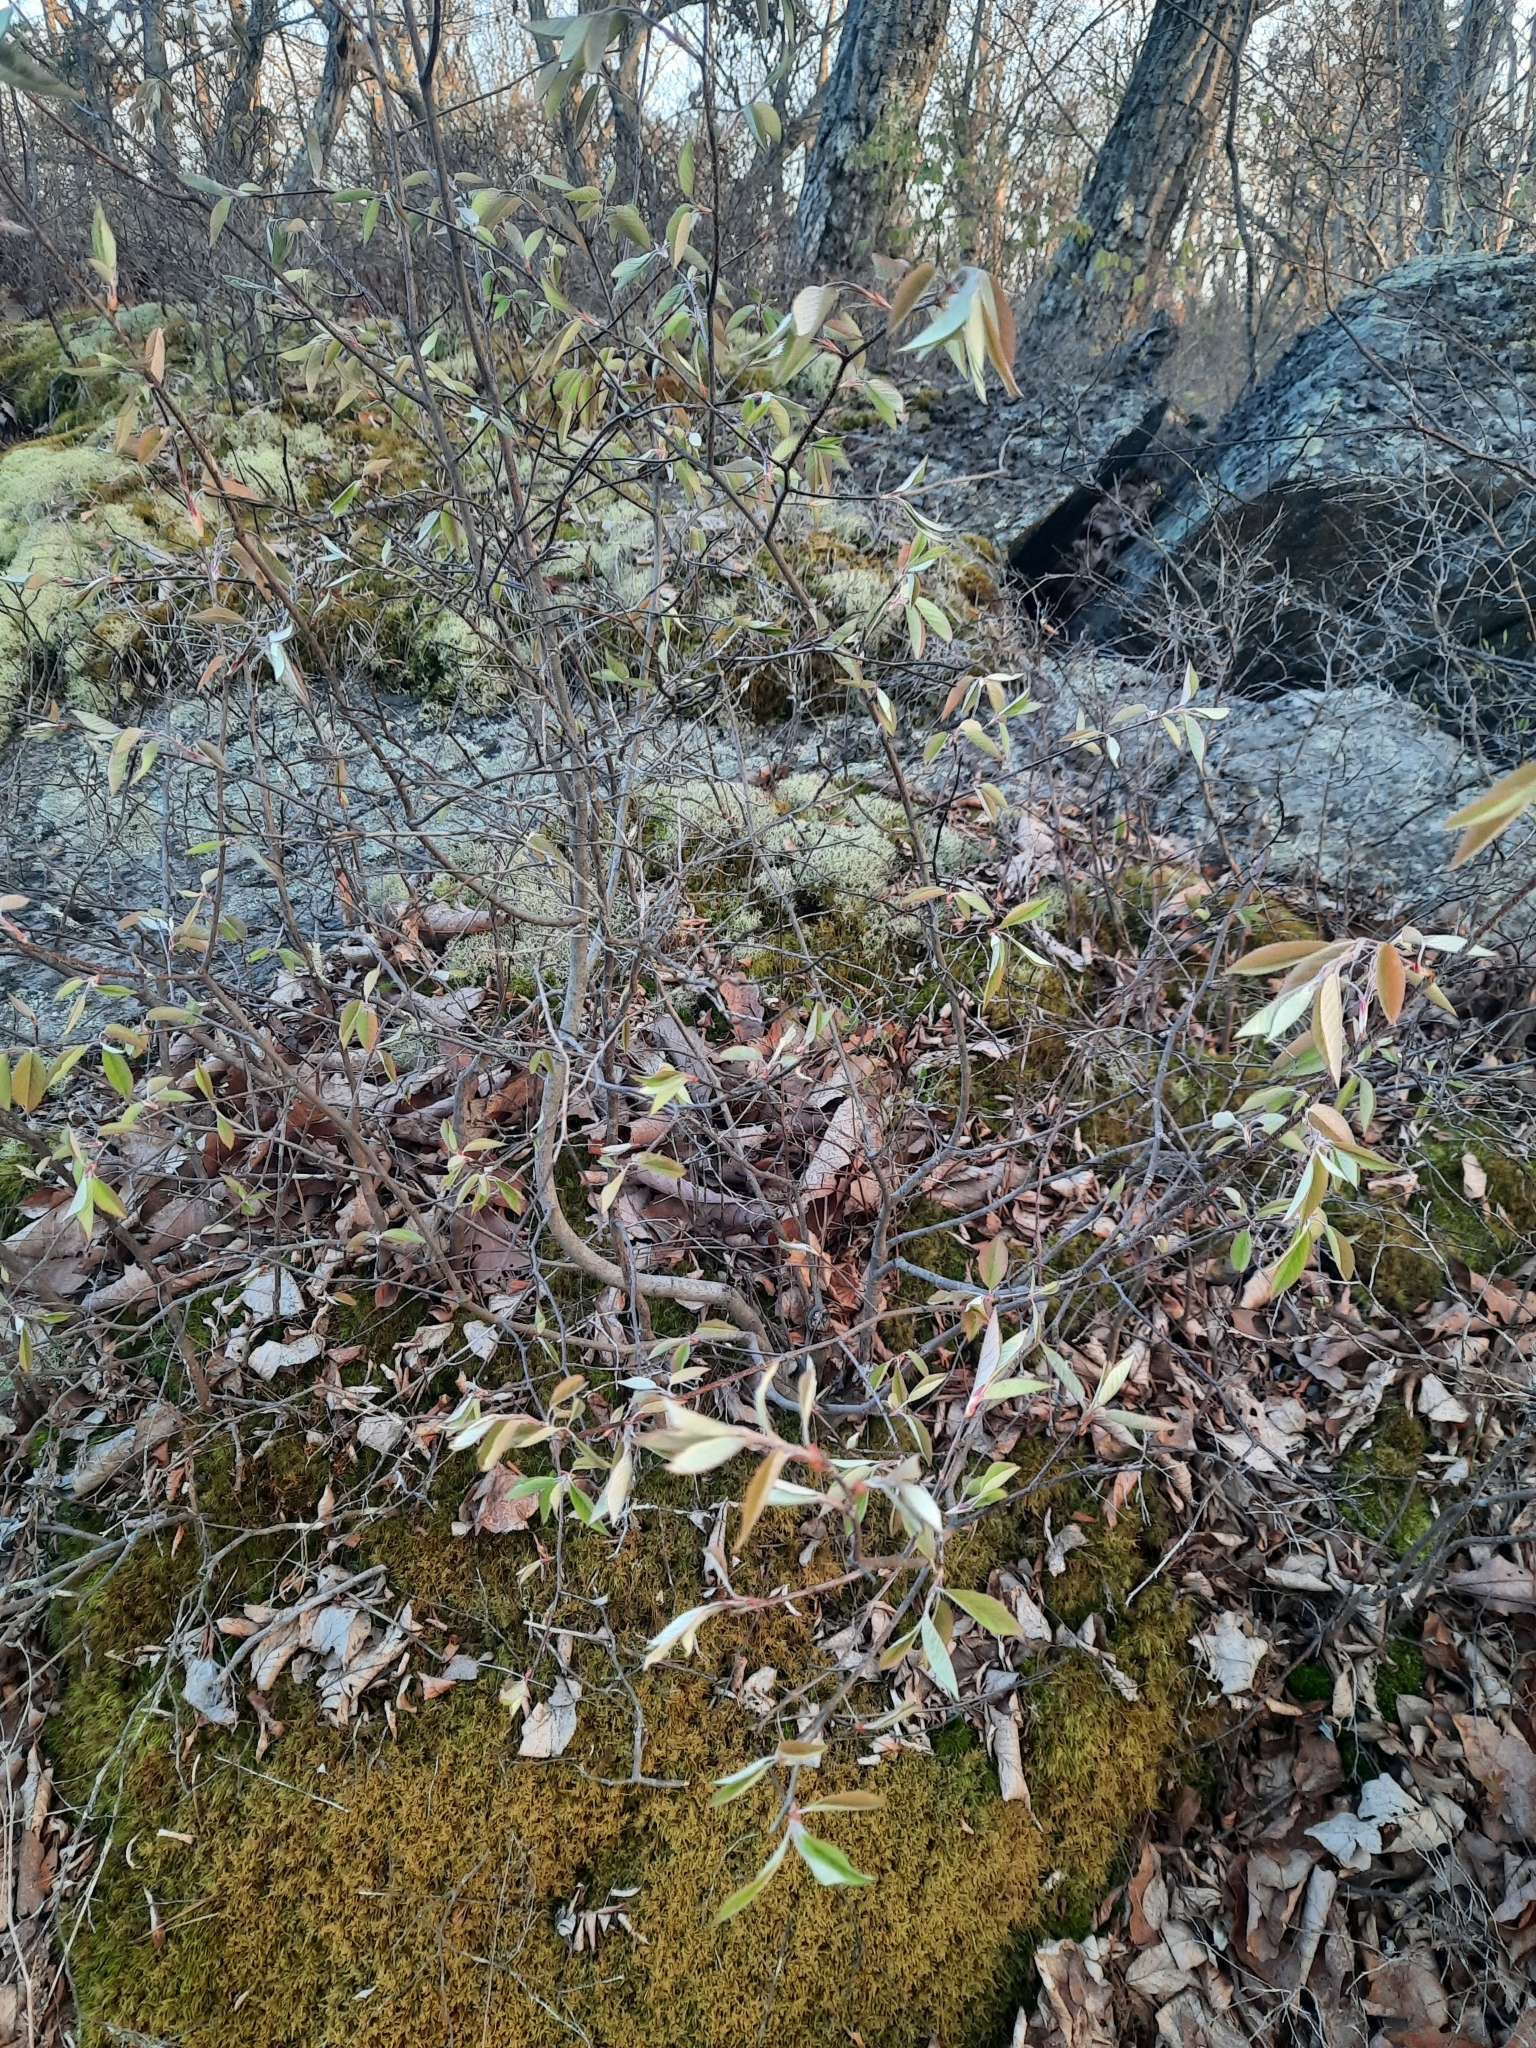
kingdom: Plantae
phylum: Tracheophyta
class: Magnoliopsida
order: Rosales
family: Rosaceae
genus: Amelanchier
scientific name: Amelanchier
